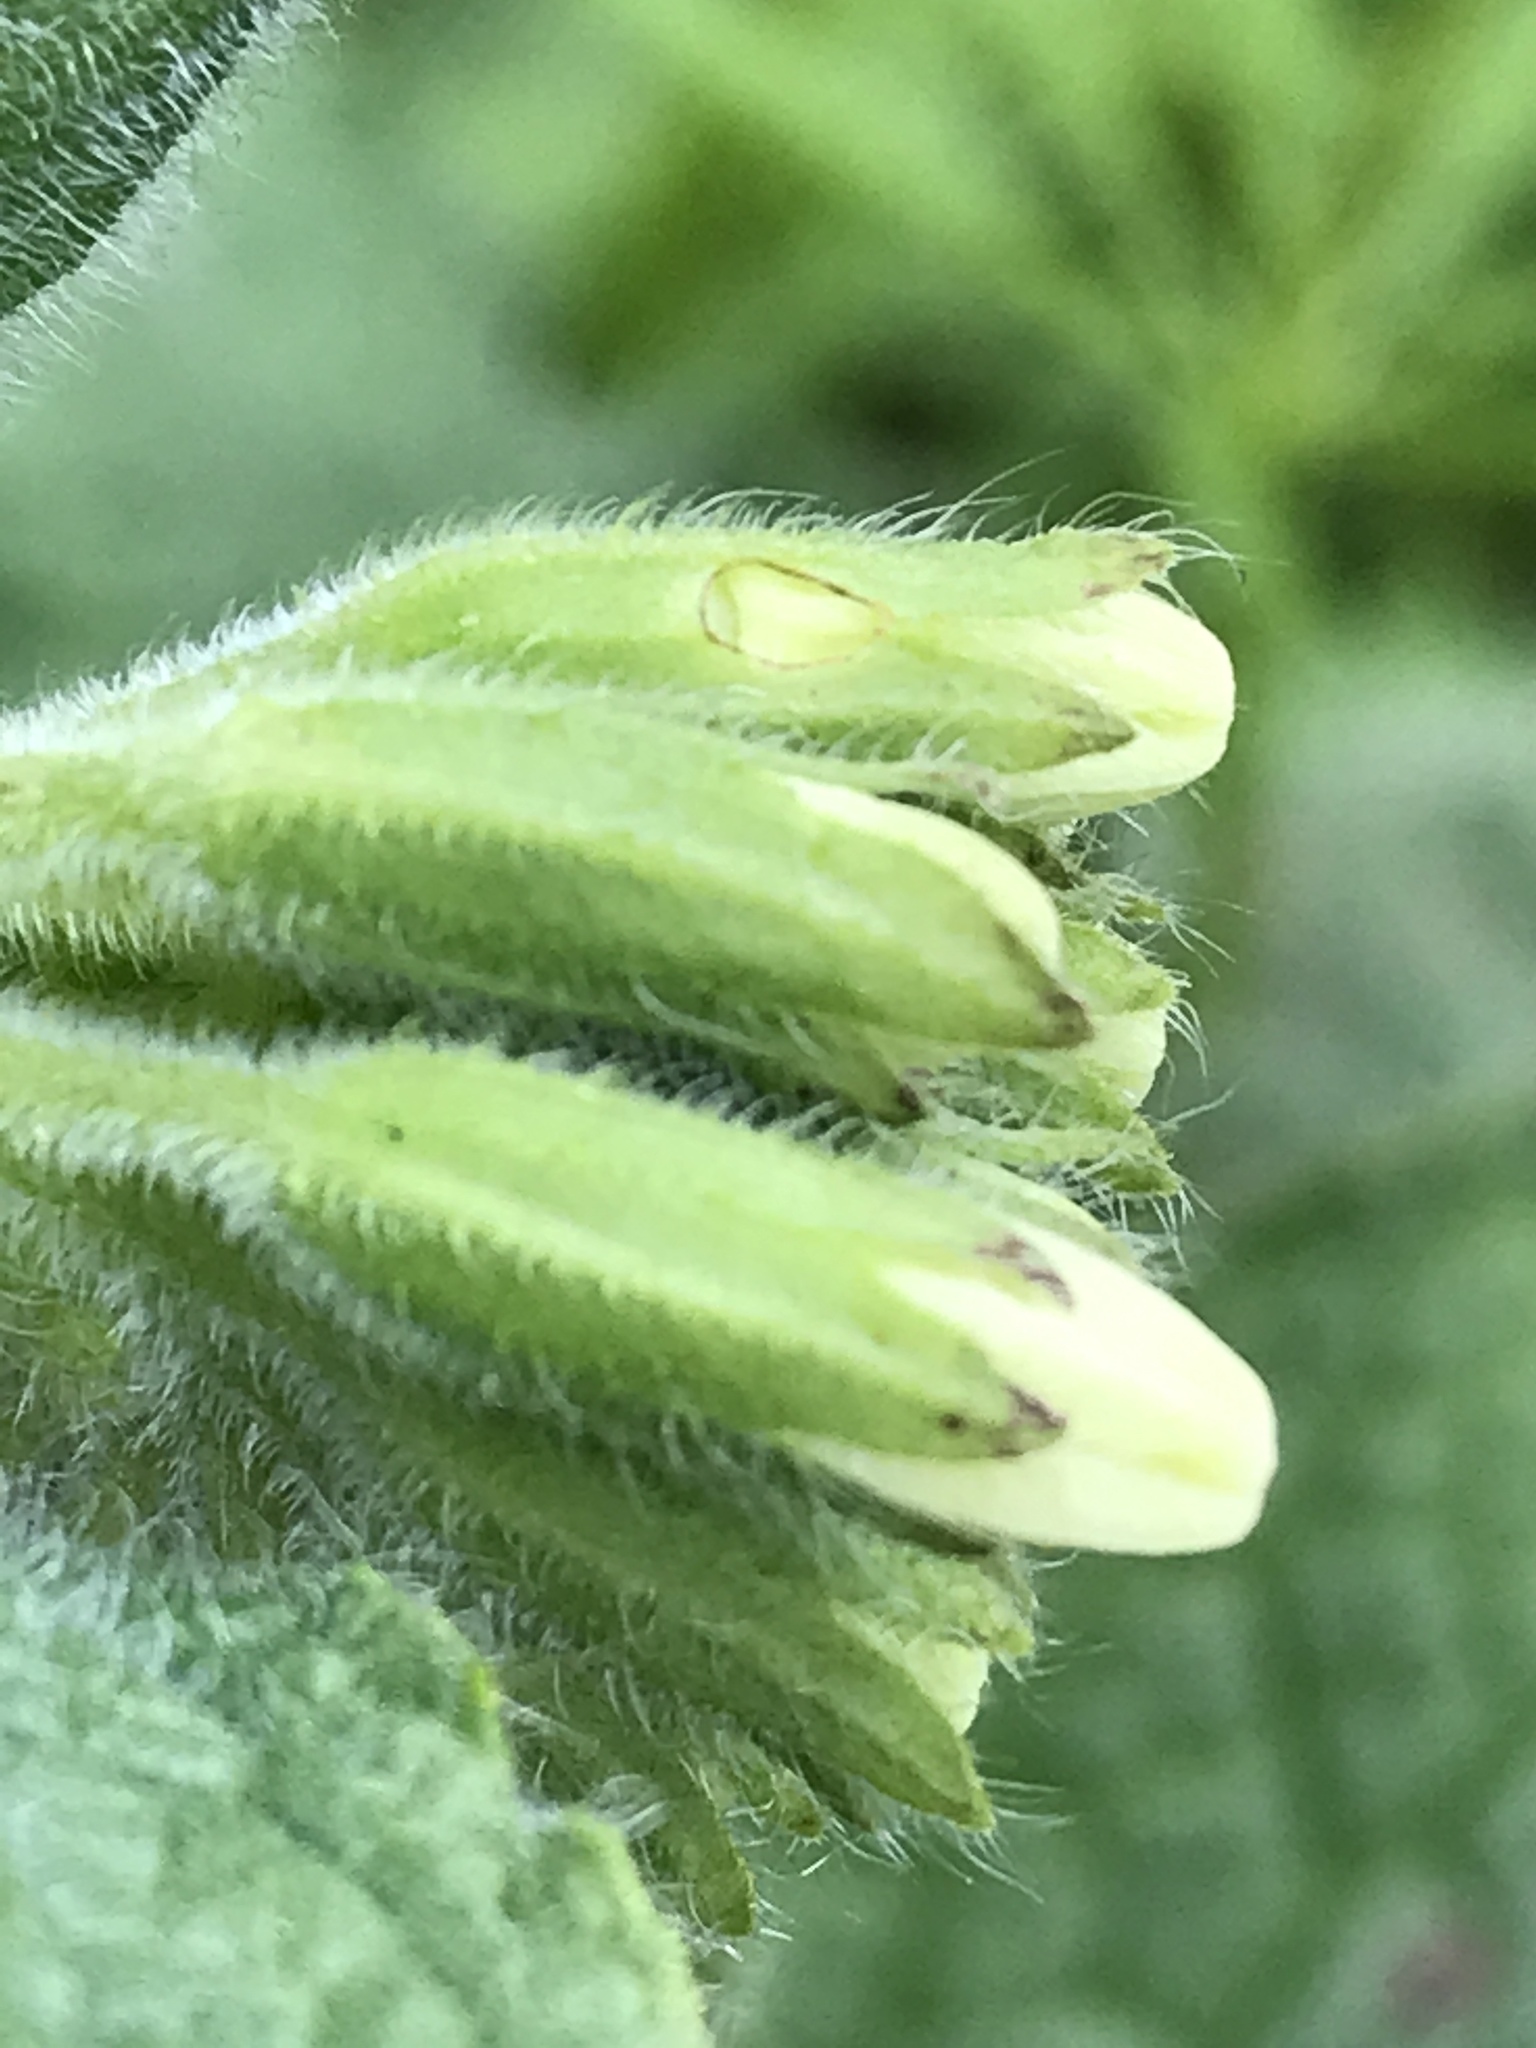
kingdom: Plantae
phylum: Tracheophyta
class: Magnoliopsida
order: Boraginales
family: Boraginaceae
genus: Symphytum
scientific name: Symphytum orientale
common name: White comfrey
